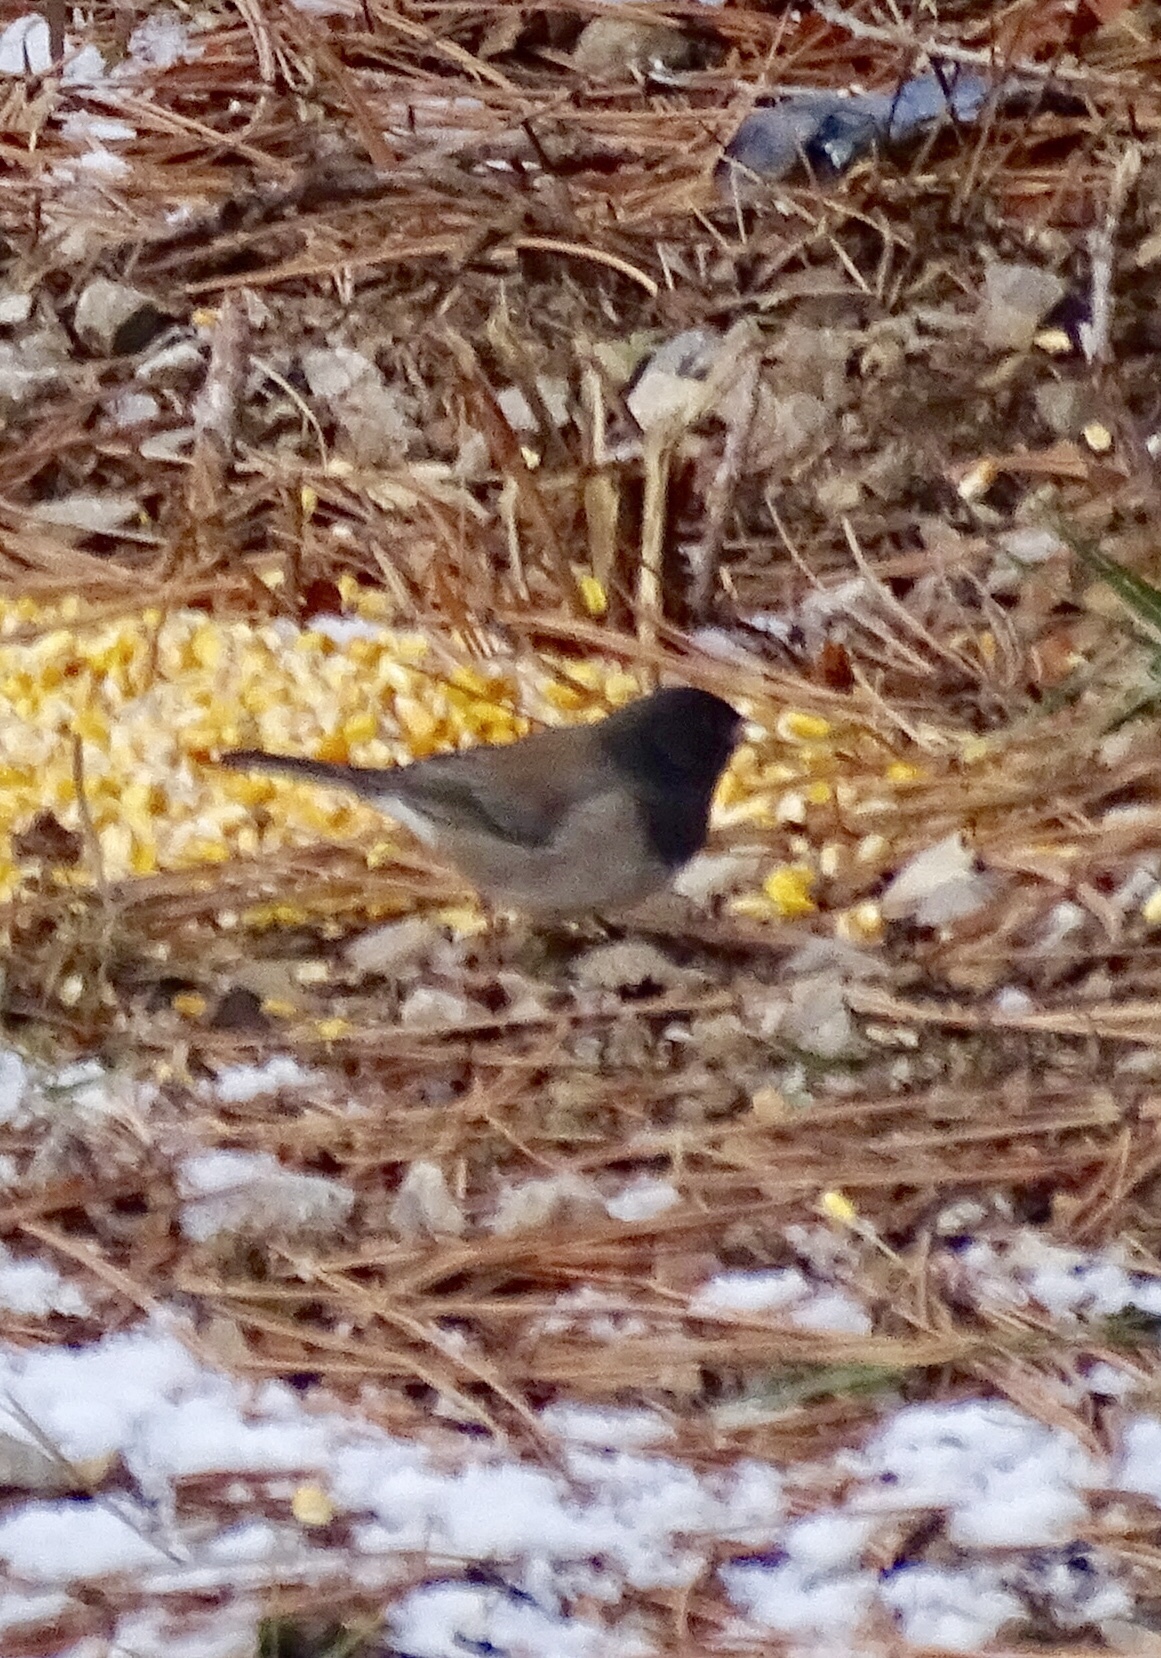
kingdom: Animalia
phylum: Chordata
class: Aves
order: Passeriformes
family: Passerellidae
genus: Junco
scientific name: Junco hyemalis
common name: Dark-eyed junco
